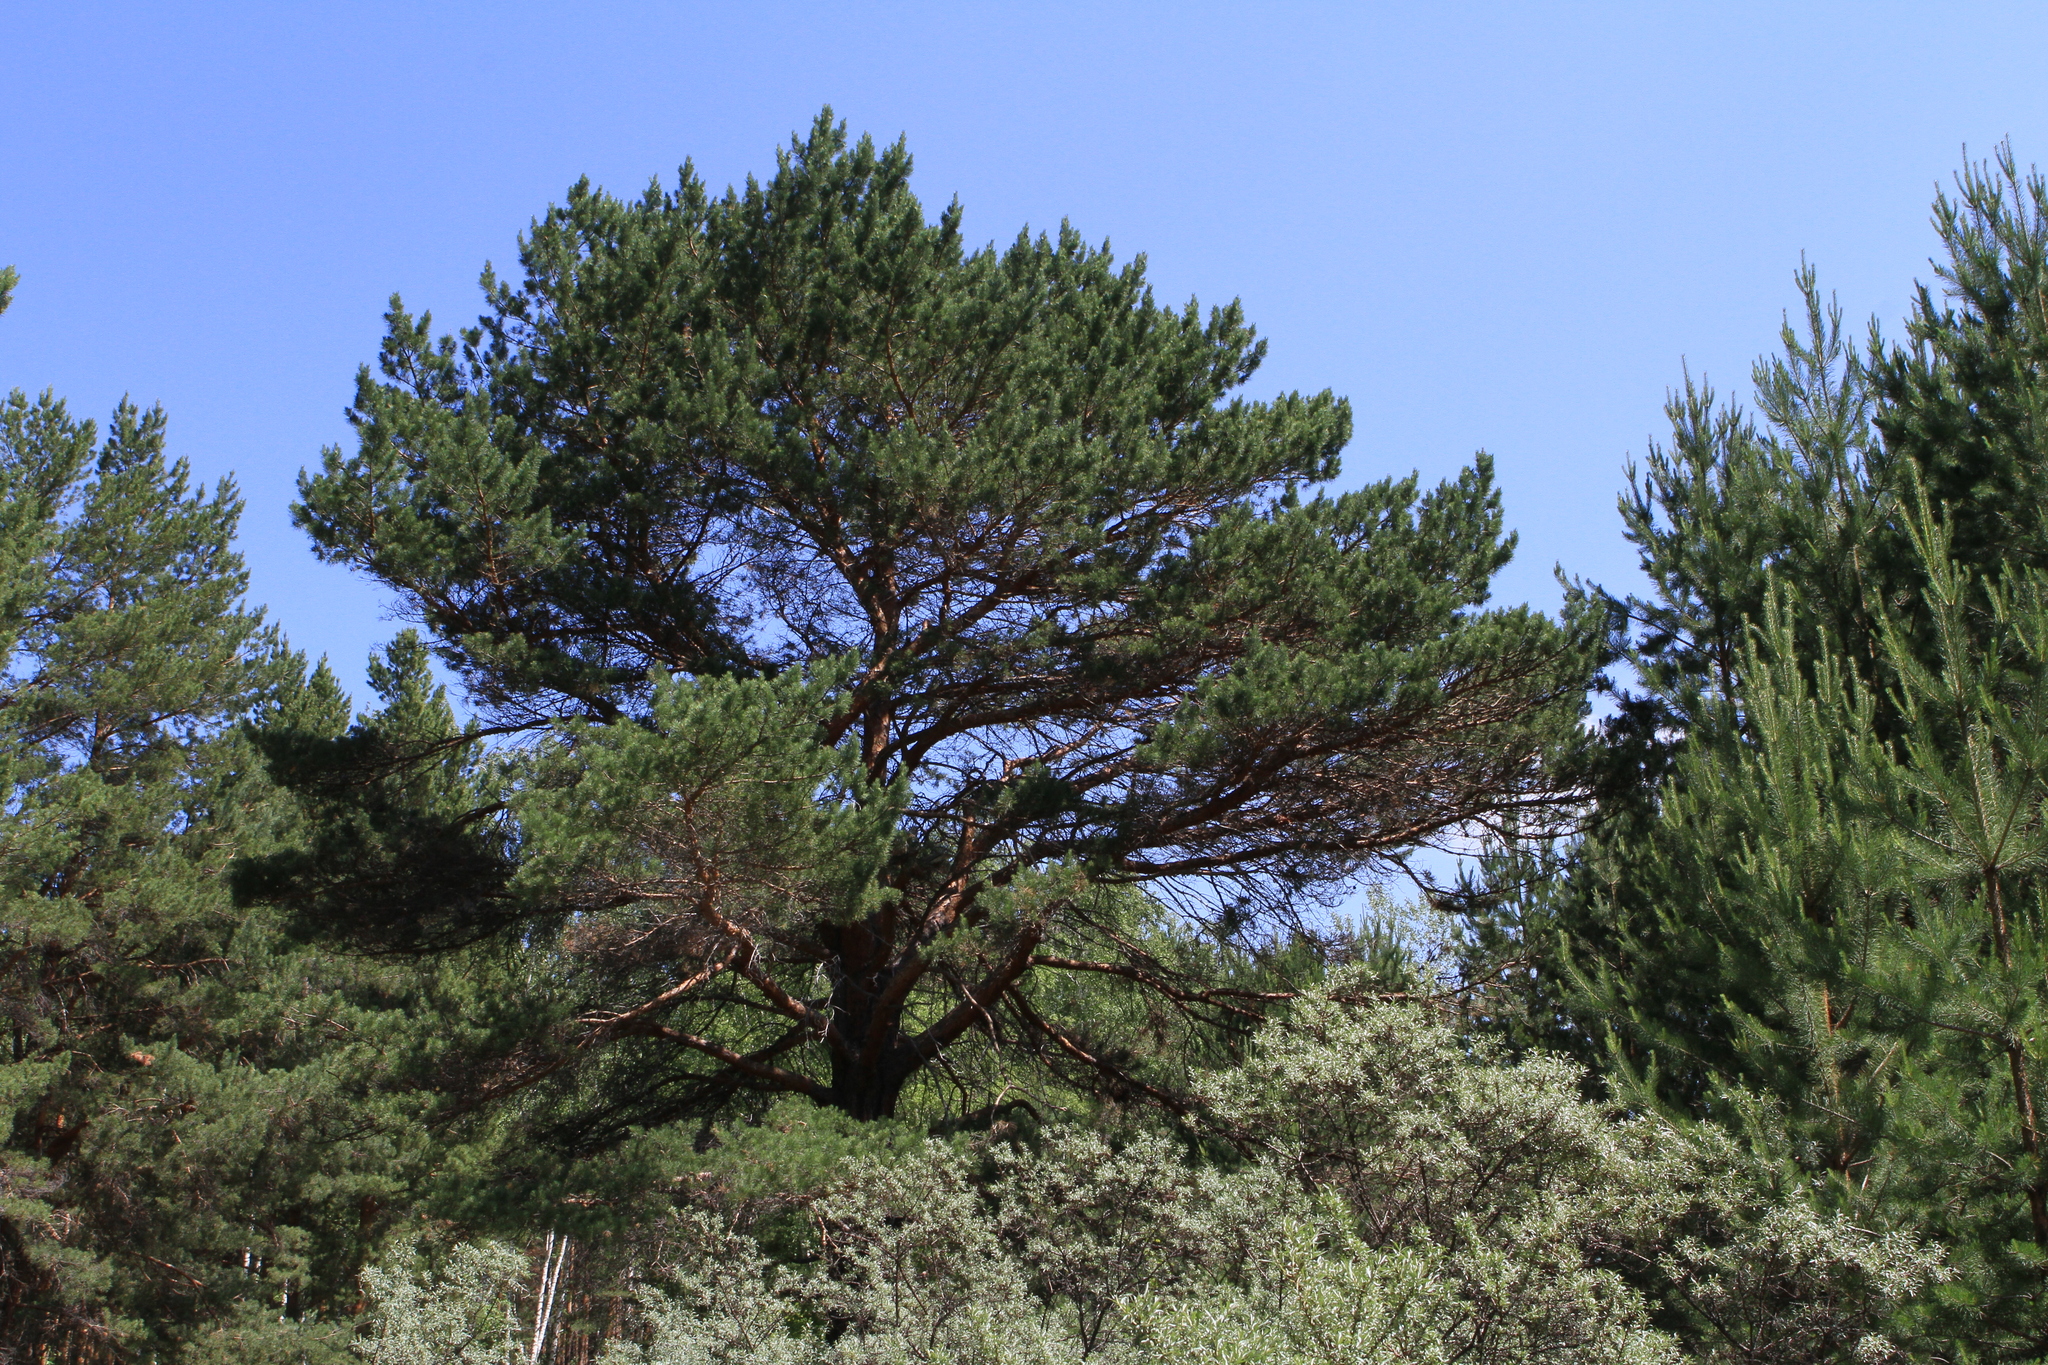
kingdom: Plantae
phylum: Tracheophyta
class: Pinopsida
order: Pinales
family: Pinaceae
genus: Pinus
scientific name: Pinus sylvestris
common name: Scots pine
